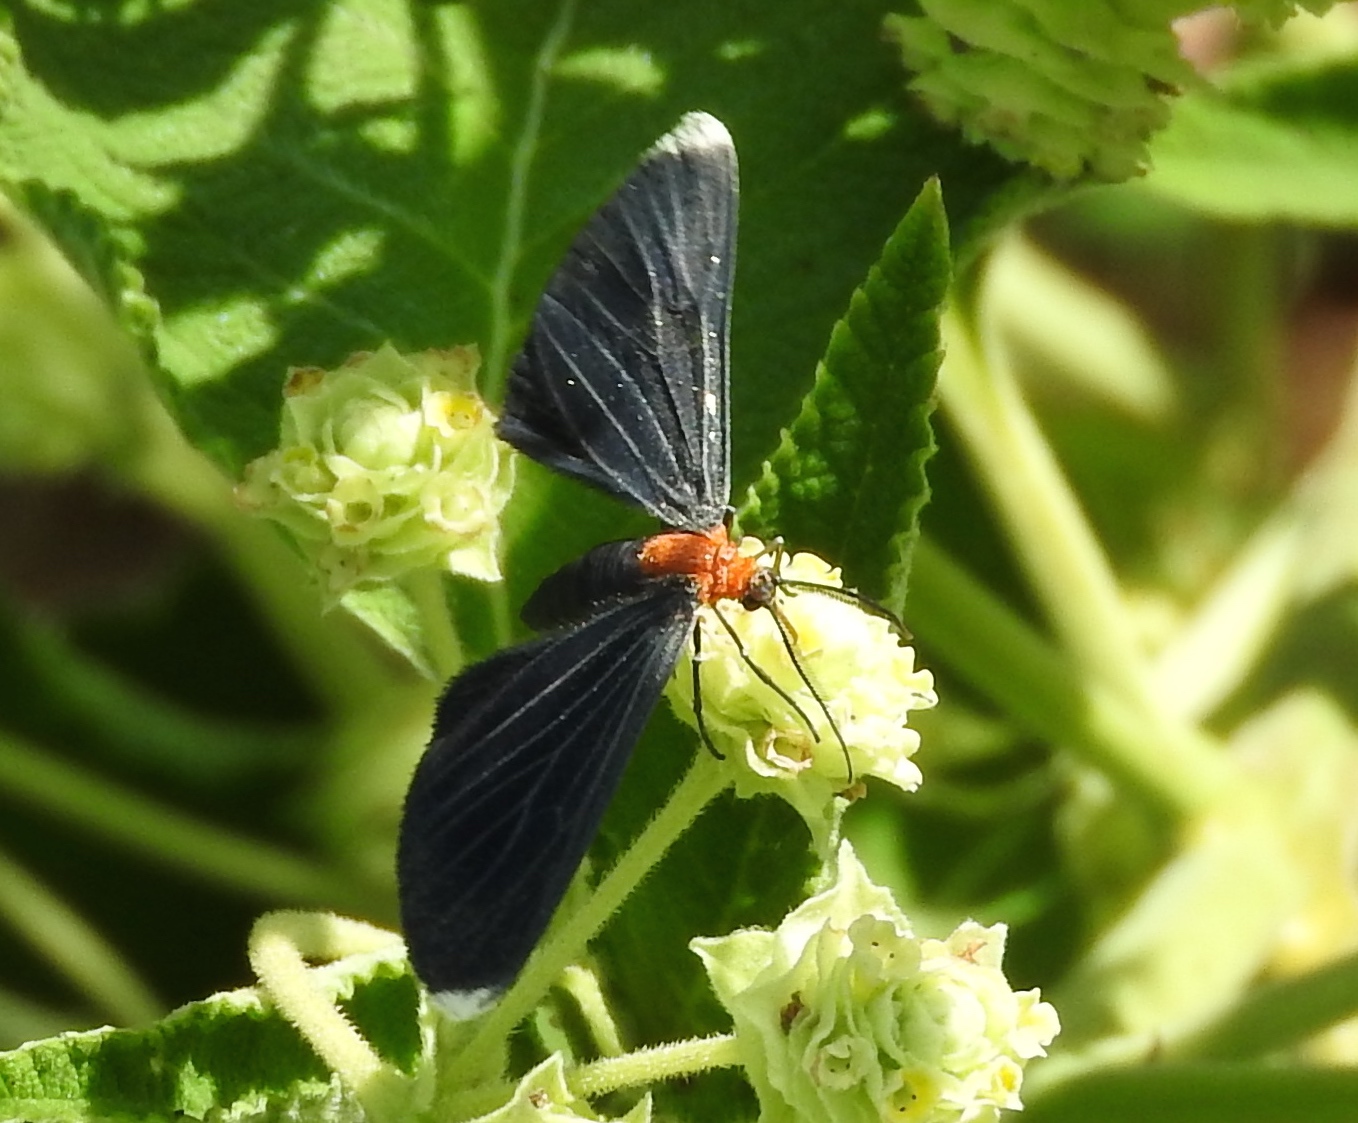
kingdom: Animalia
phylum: Arthropoda
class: Insecta
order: Lepidoptera
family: Geometridae
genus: Melanchroia
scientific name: Melanchroia chephise
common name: White-tipped black
